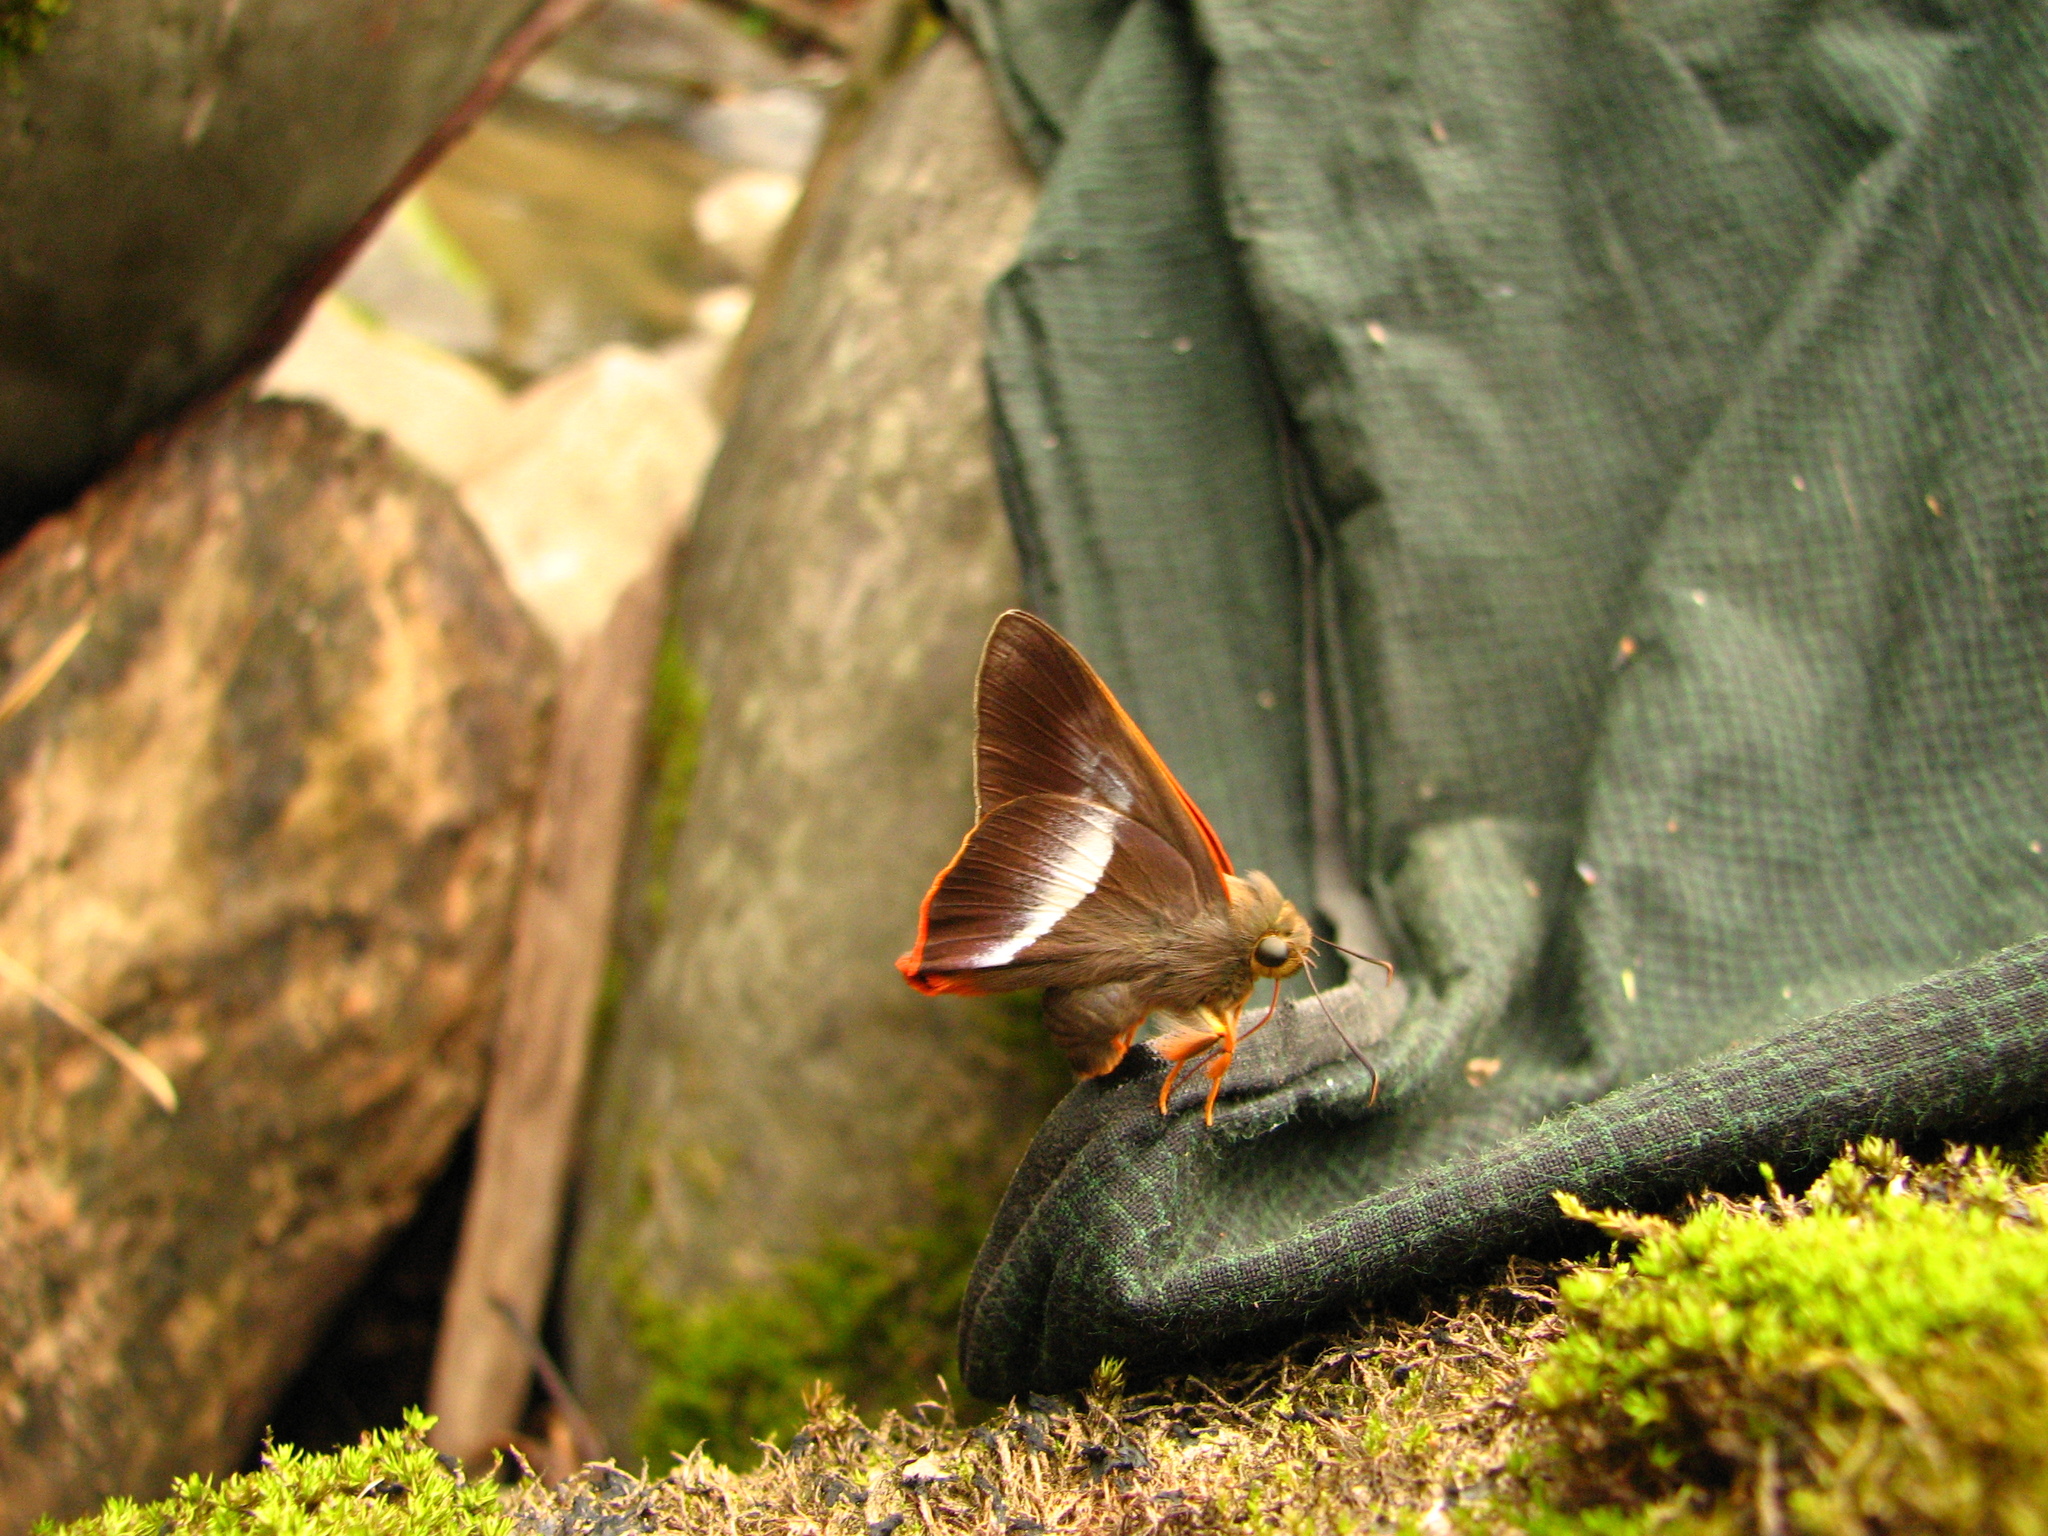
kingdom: Animalia
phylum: Arthropoda
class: Insecta
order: Lepidoptera
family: Hesperiidae
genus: Bibasis
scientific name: Bibasis sena
